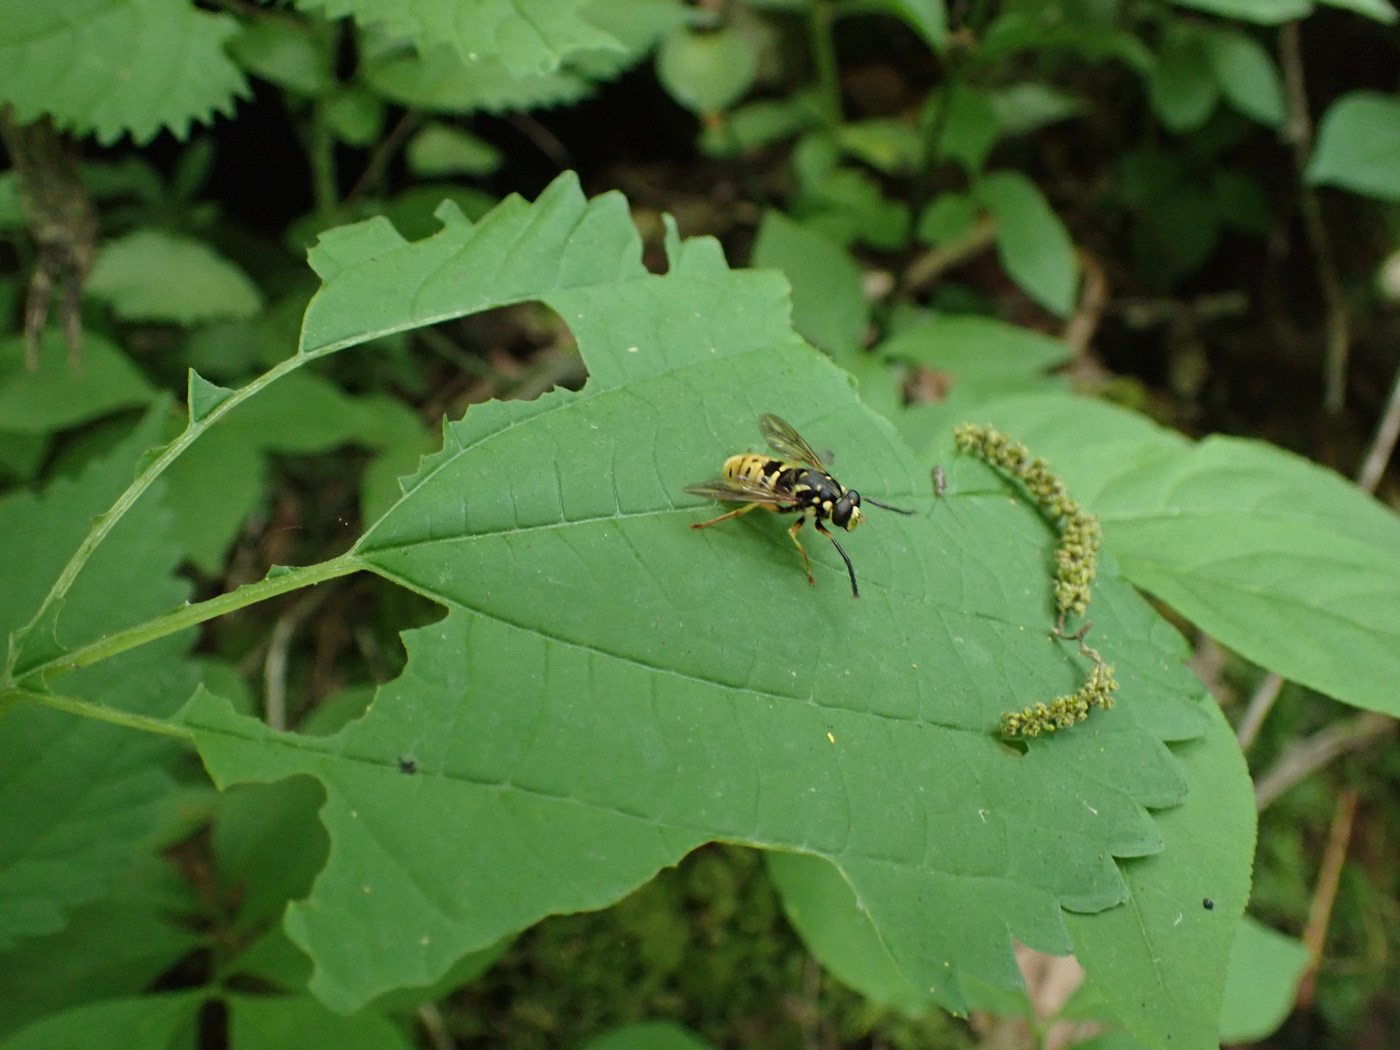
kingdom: Animalia
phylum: Arthropoda
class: Insecta
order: Diptera
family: Syrphidae
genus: Temnostoma
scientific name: Temnostoma alternans
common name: Wasp-like falsehorn
